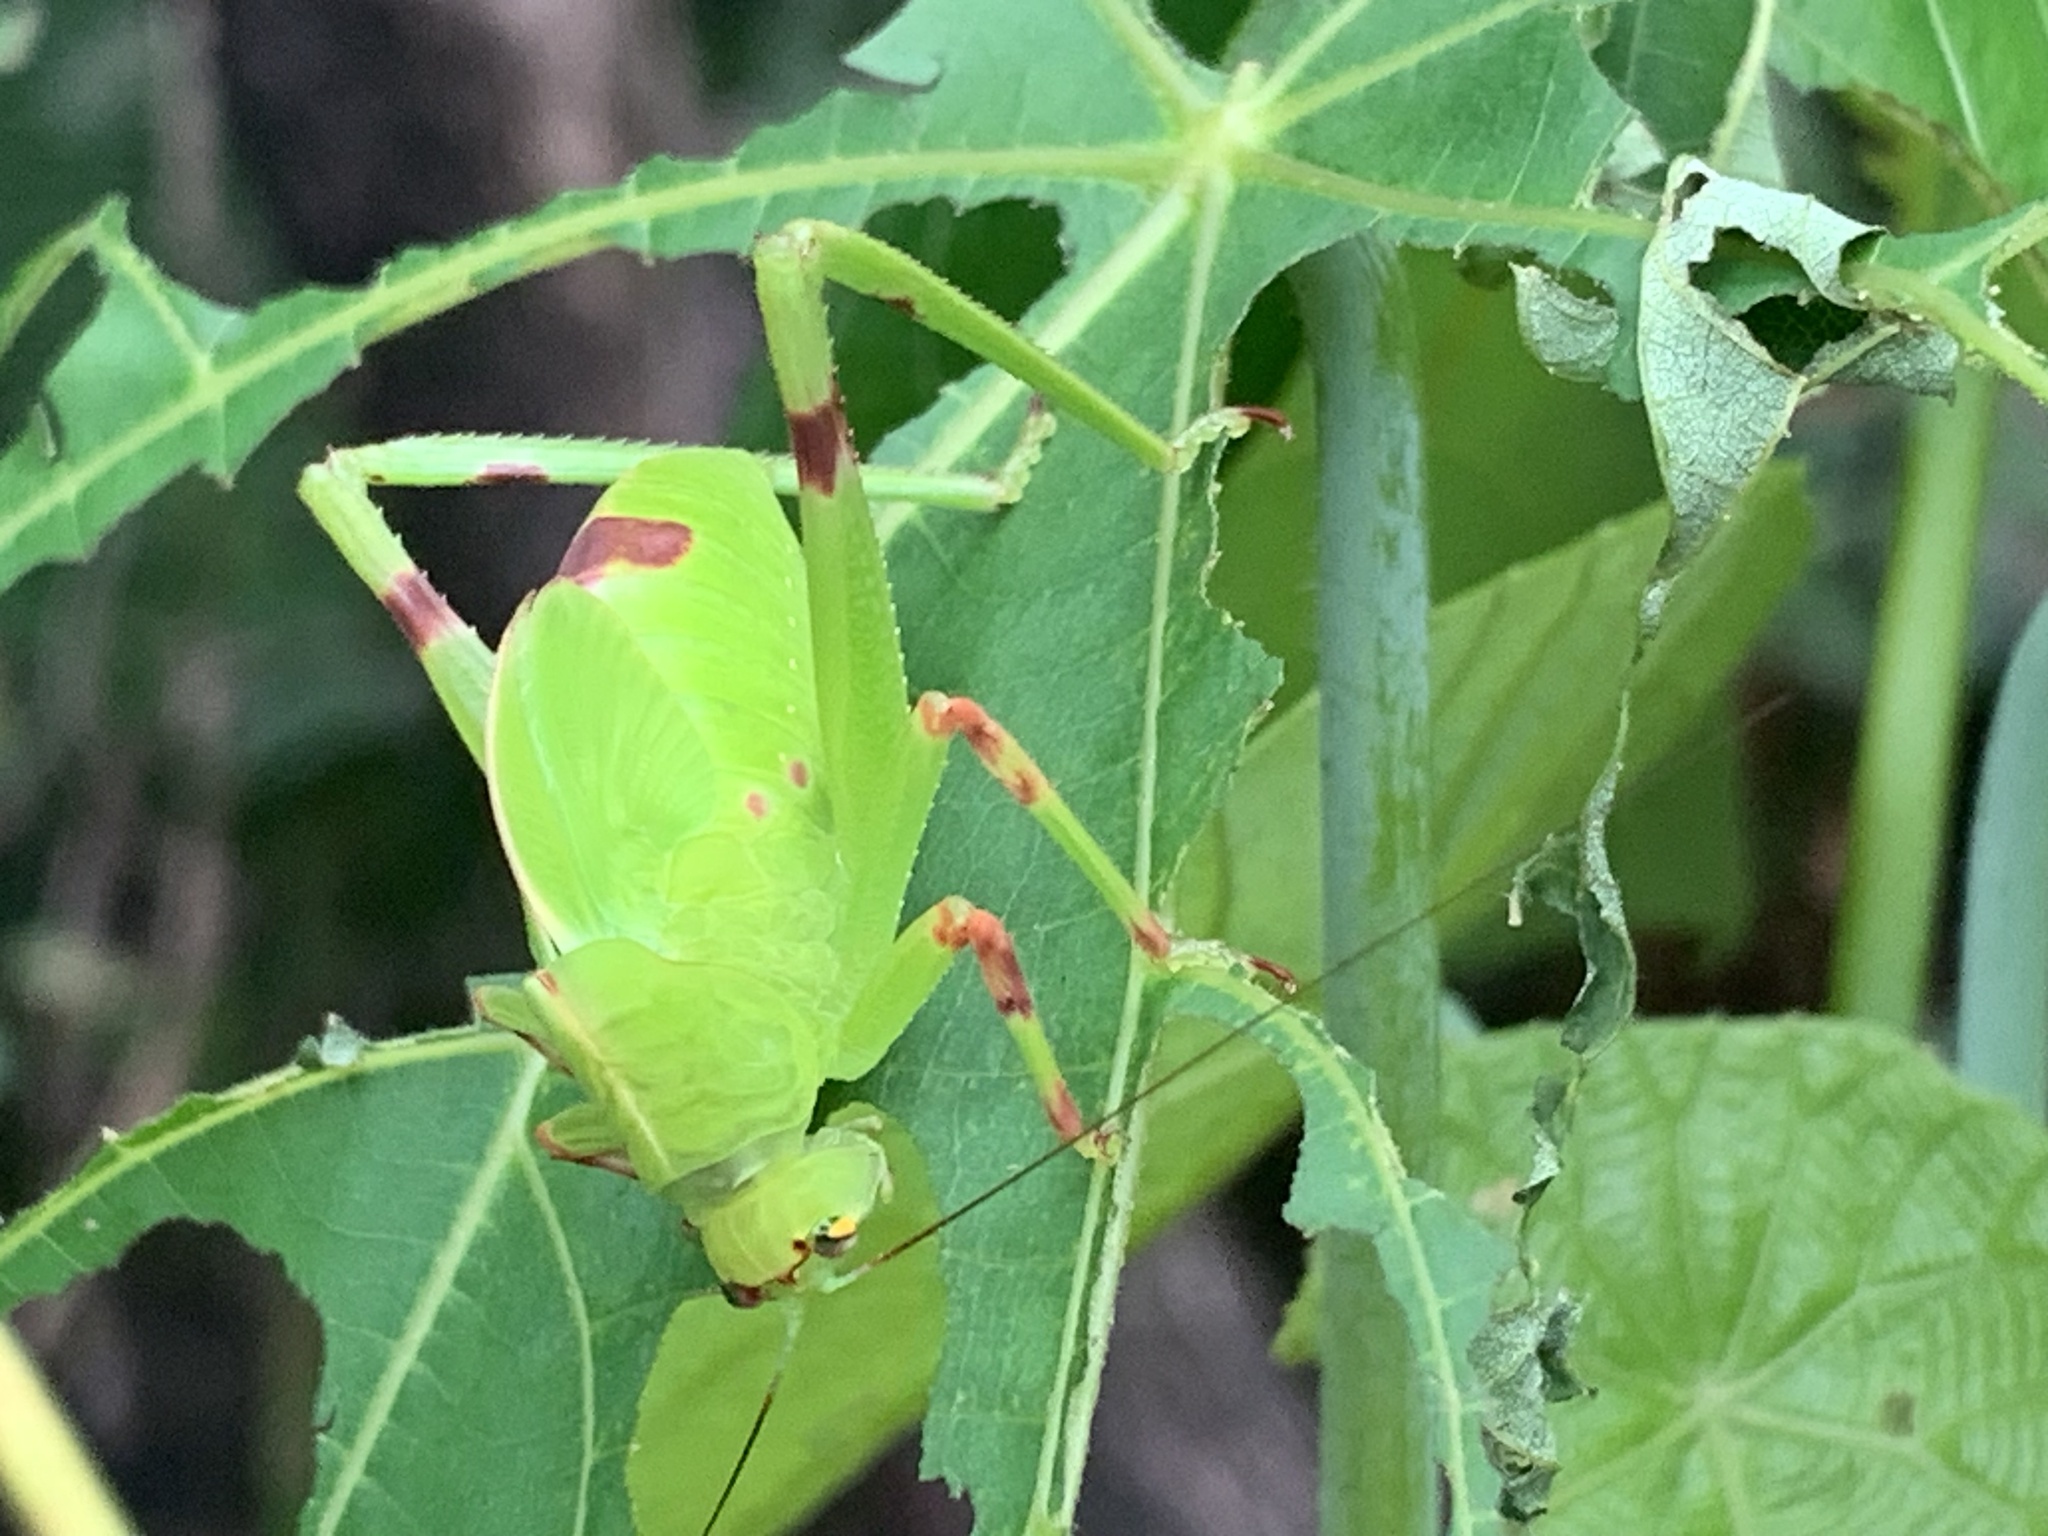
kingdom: Animalia
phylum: Arthropoda
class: Insecta
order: Orthoptera
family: Tettigoniidae
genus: Paracaedicia
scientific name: Paracaedicia serrata
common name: Serrated bush katydid
